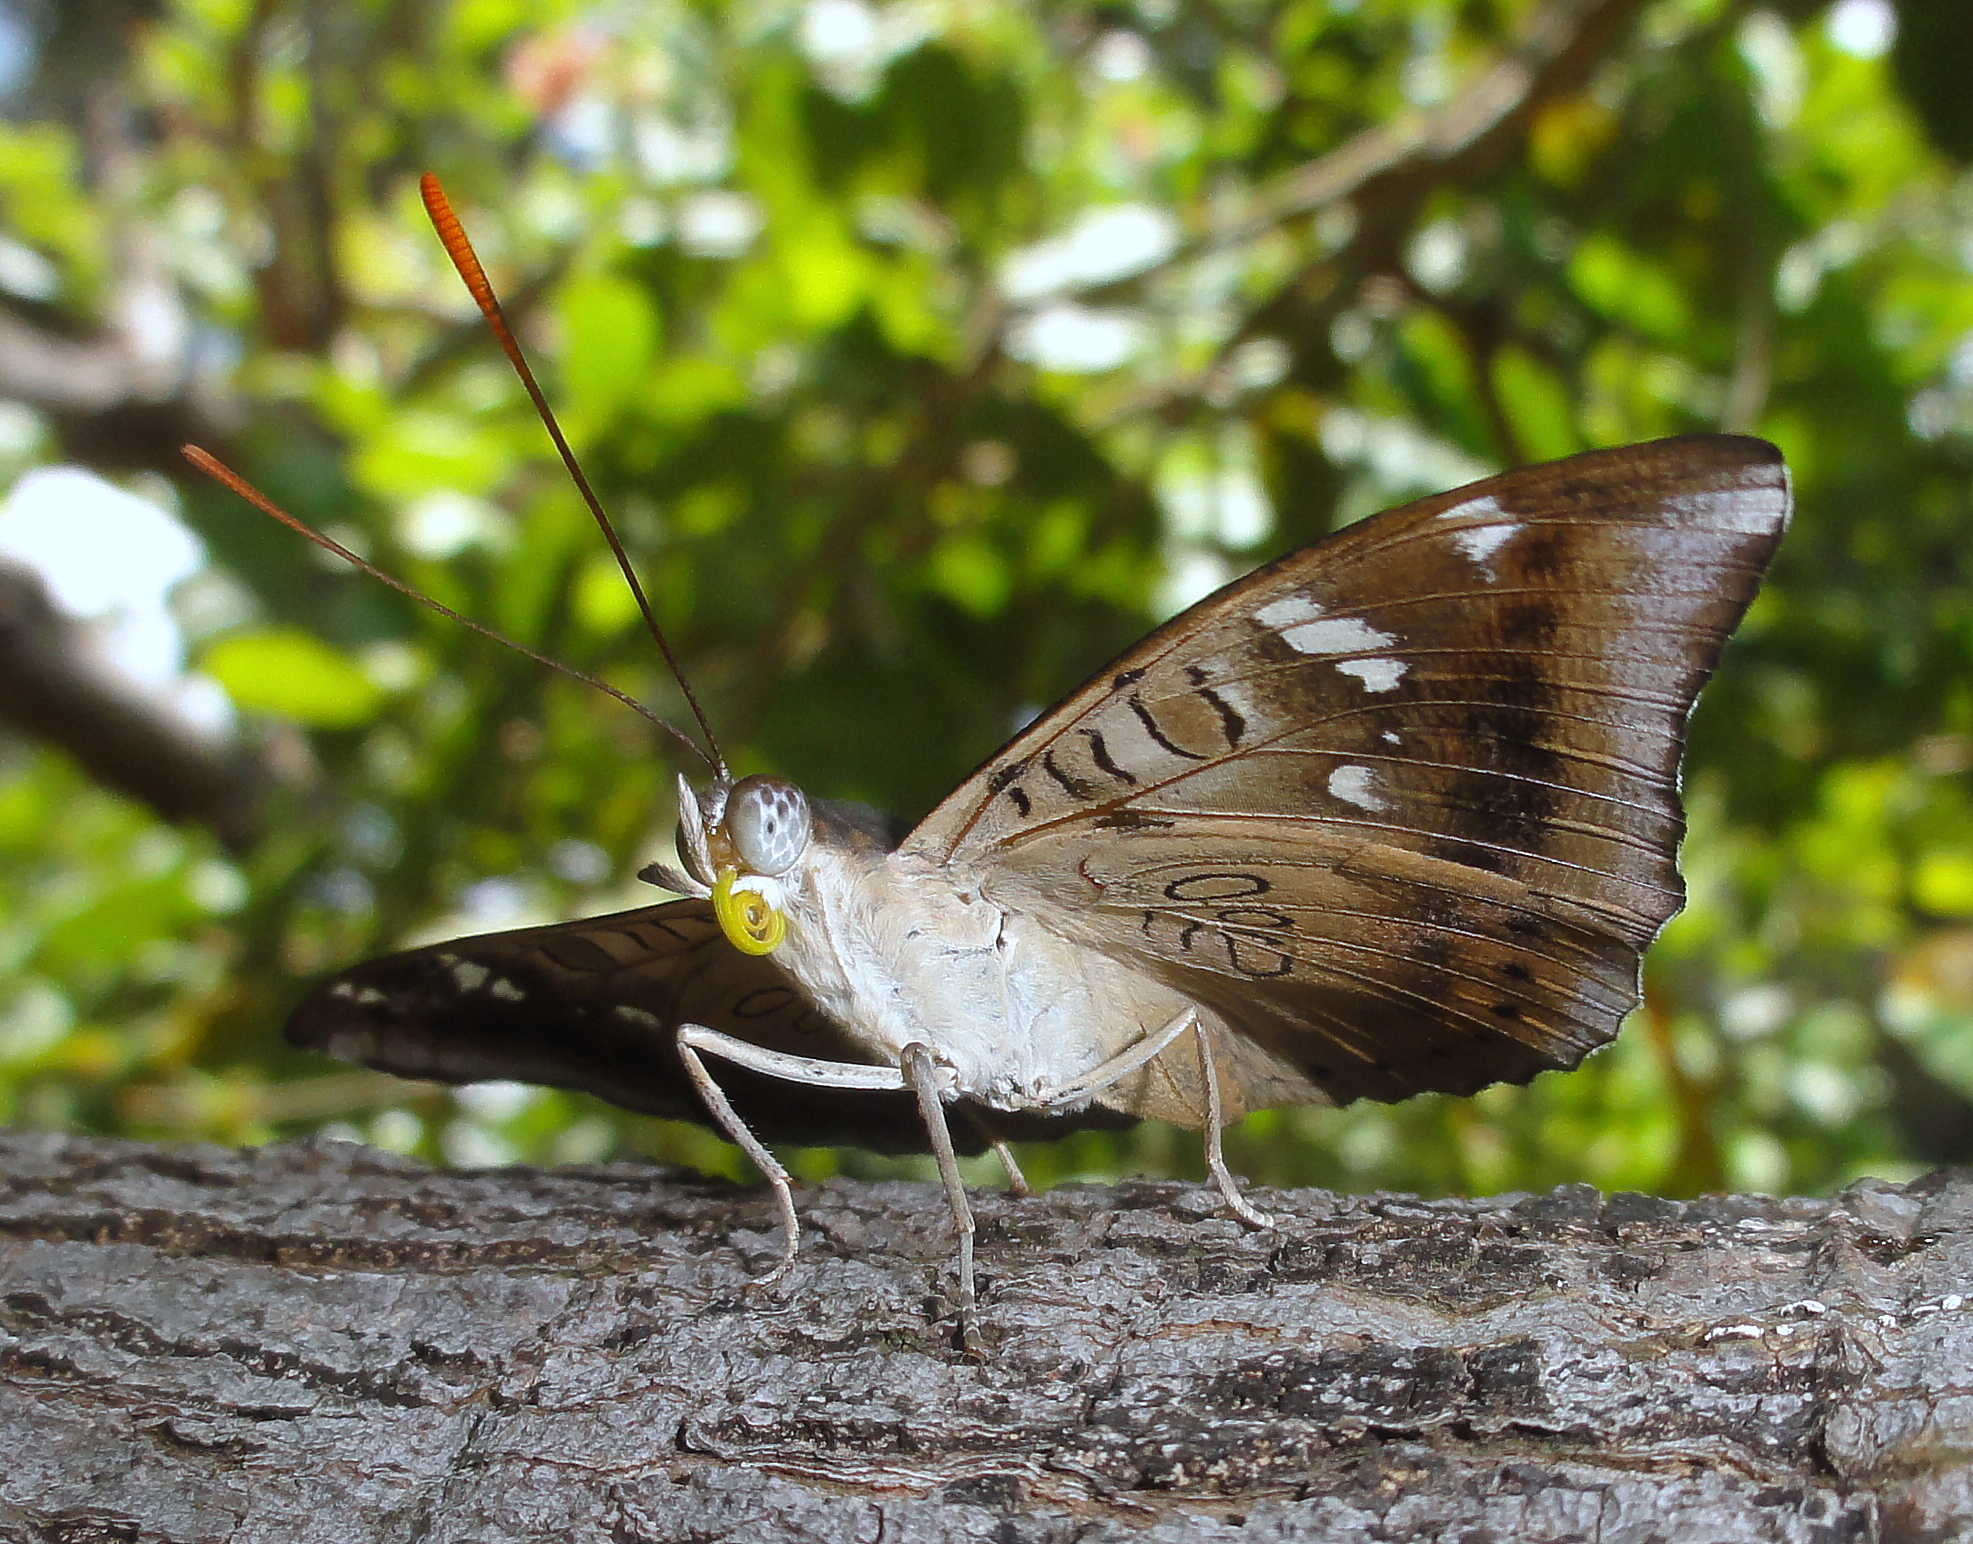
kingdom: Animalia
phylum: Arthropoda
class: Insecta
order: Lepidoptera
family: Nymphalidae
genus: Euthalia
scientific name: Euthalia aconthea
